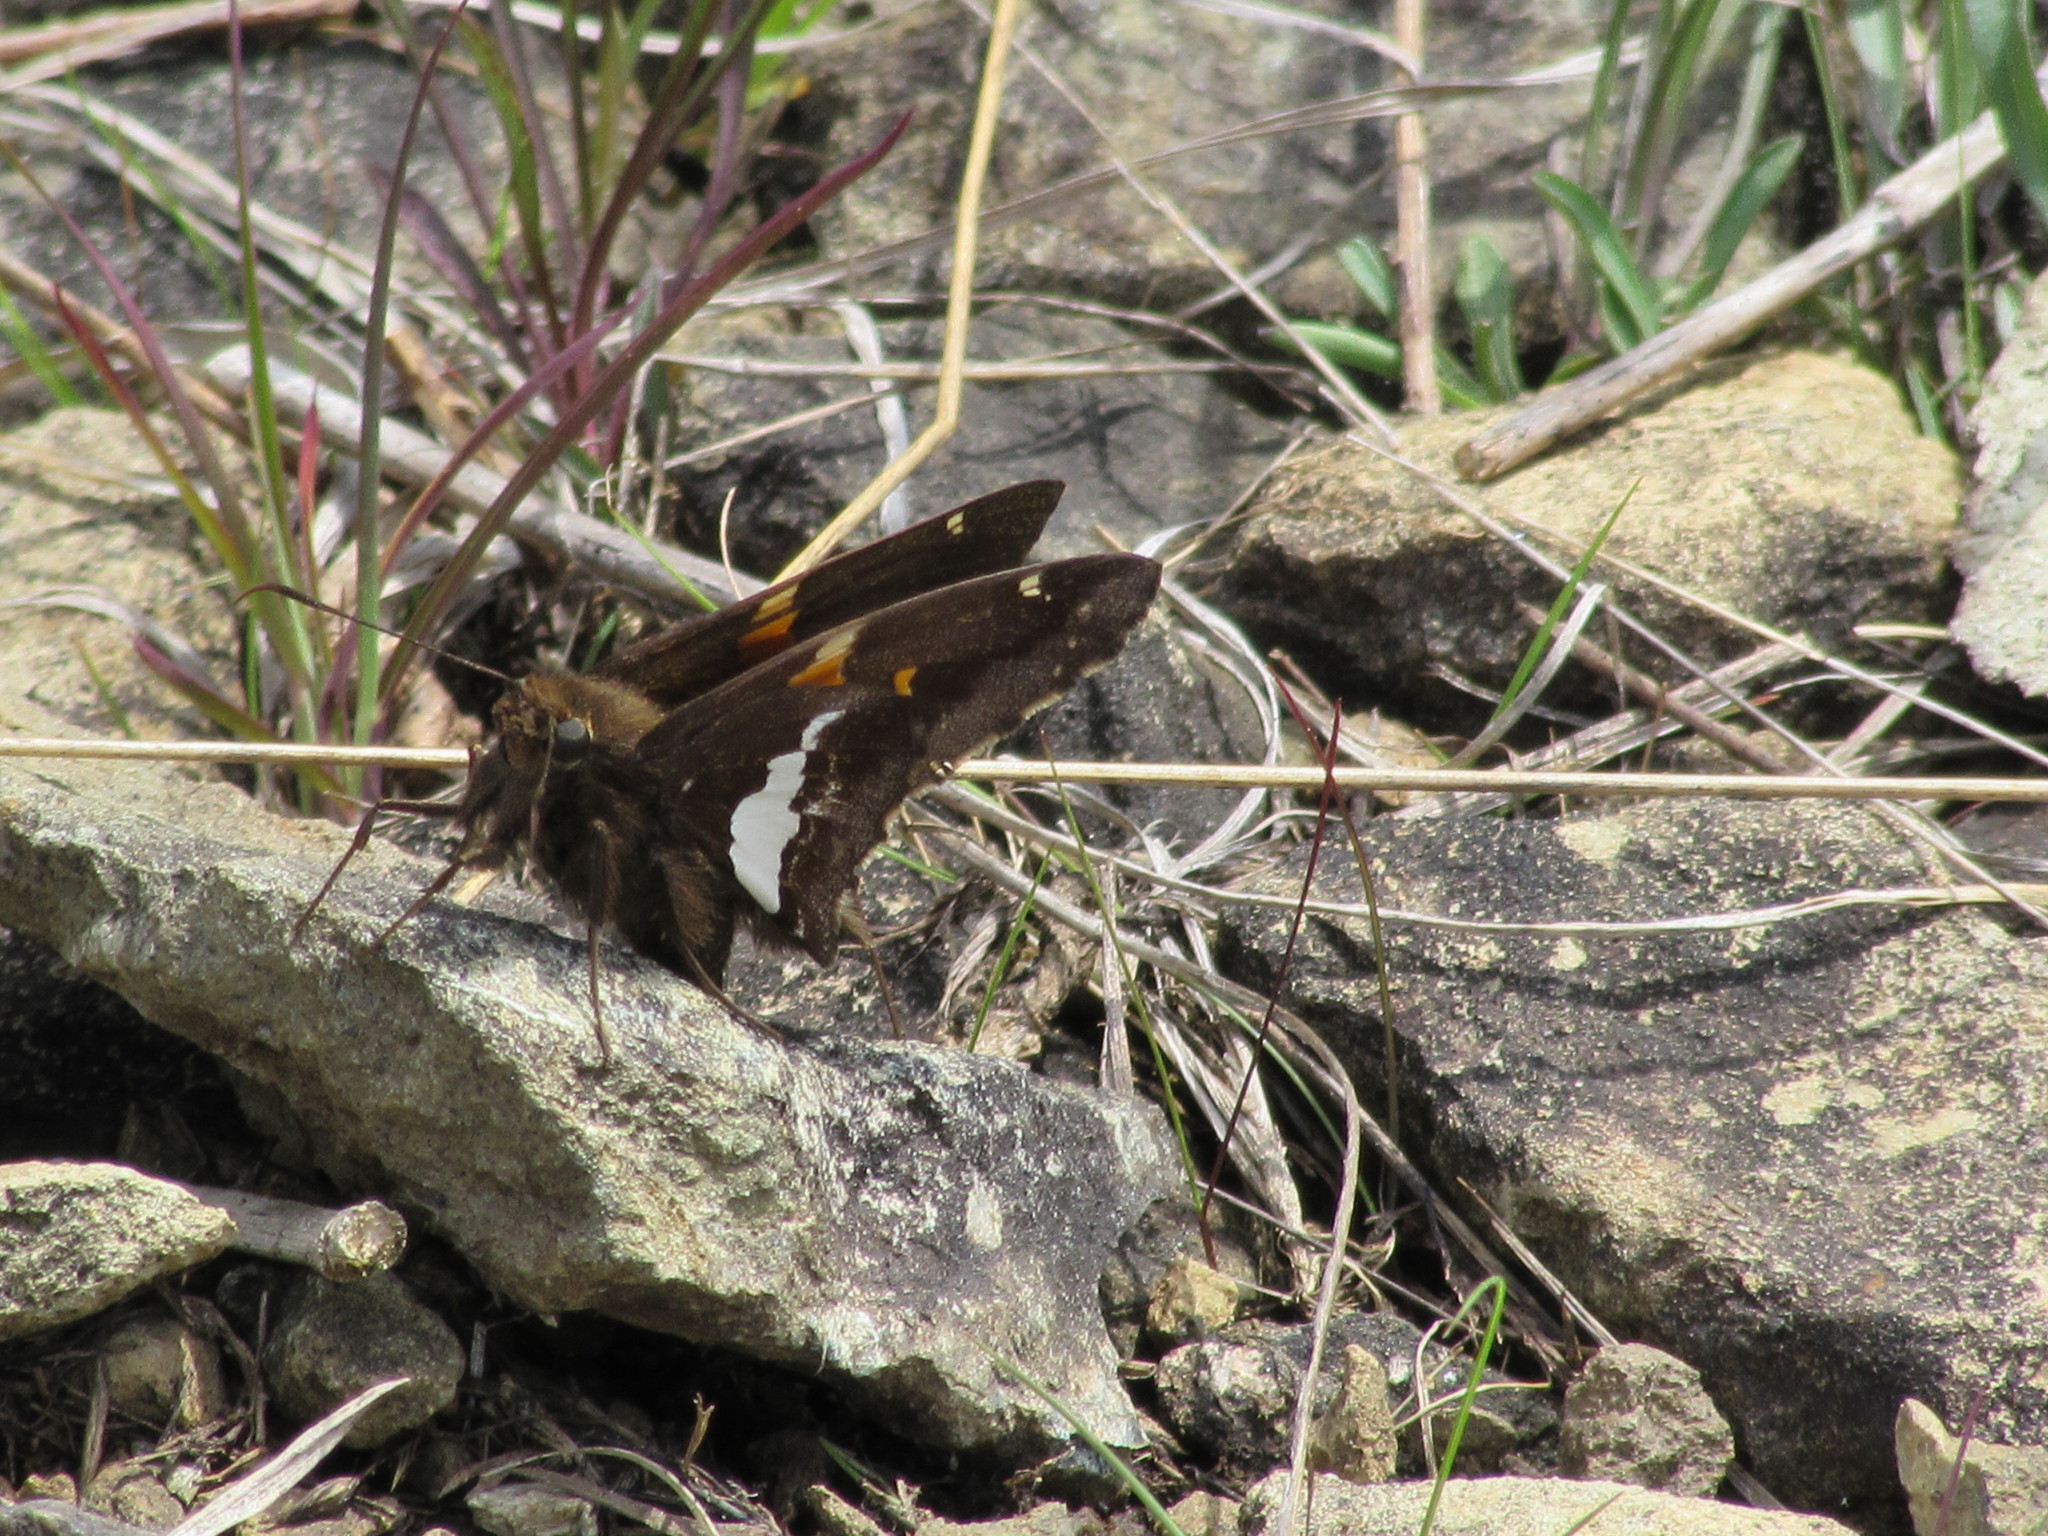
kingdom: Animalia
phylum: Arthropoda
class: Insecta
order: Lepidoptera
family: Hesperiidae
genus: Epargyreus
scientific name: Epargyreus clarus
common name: Silver-spotted skipper
